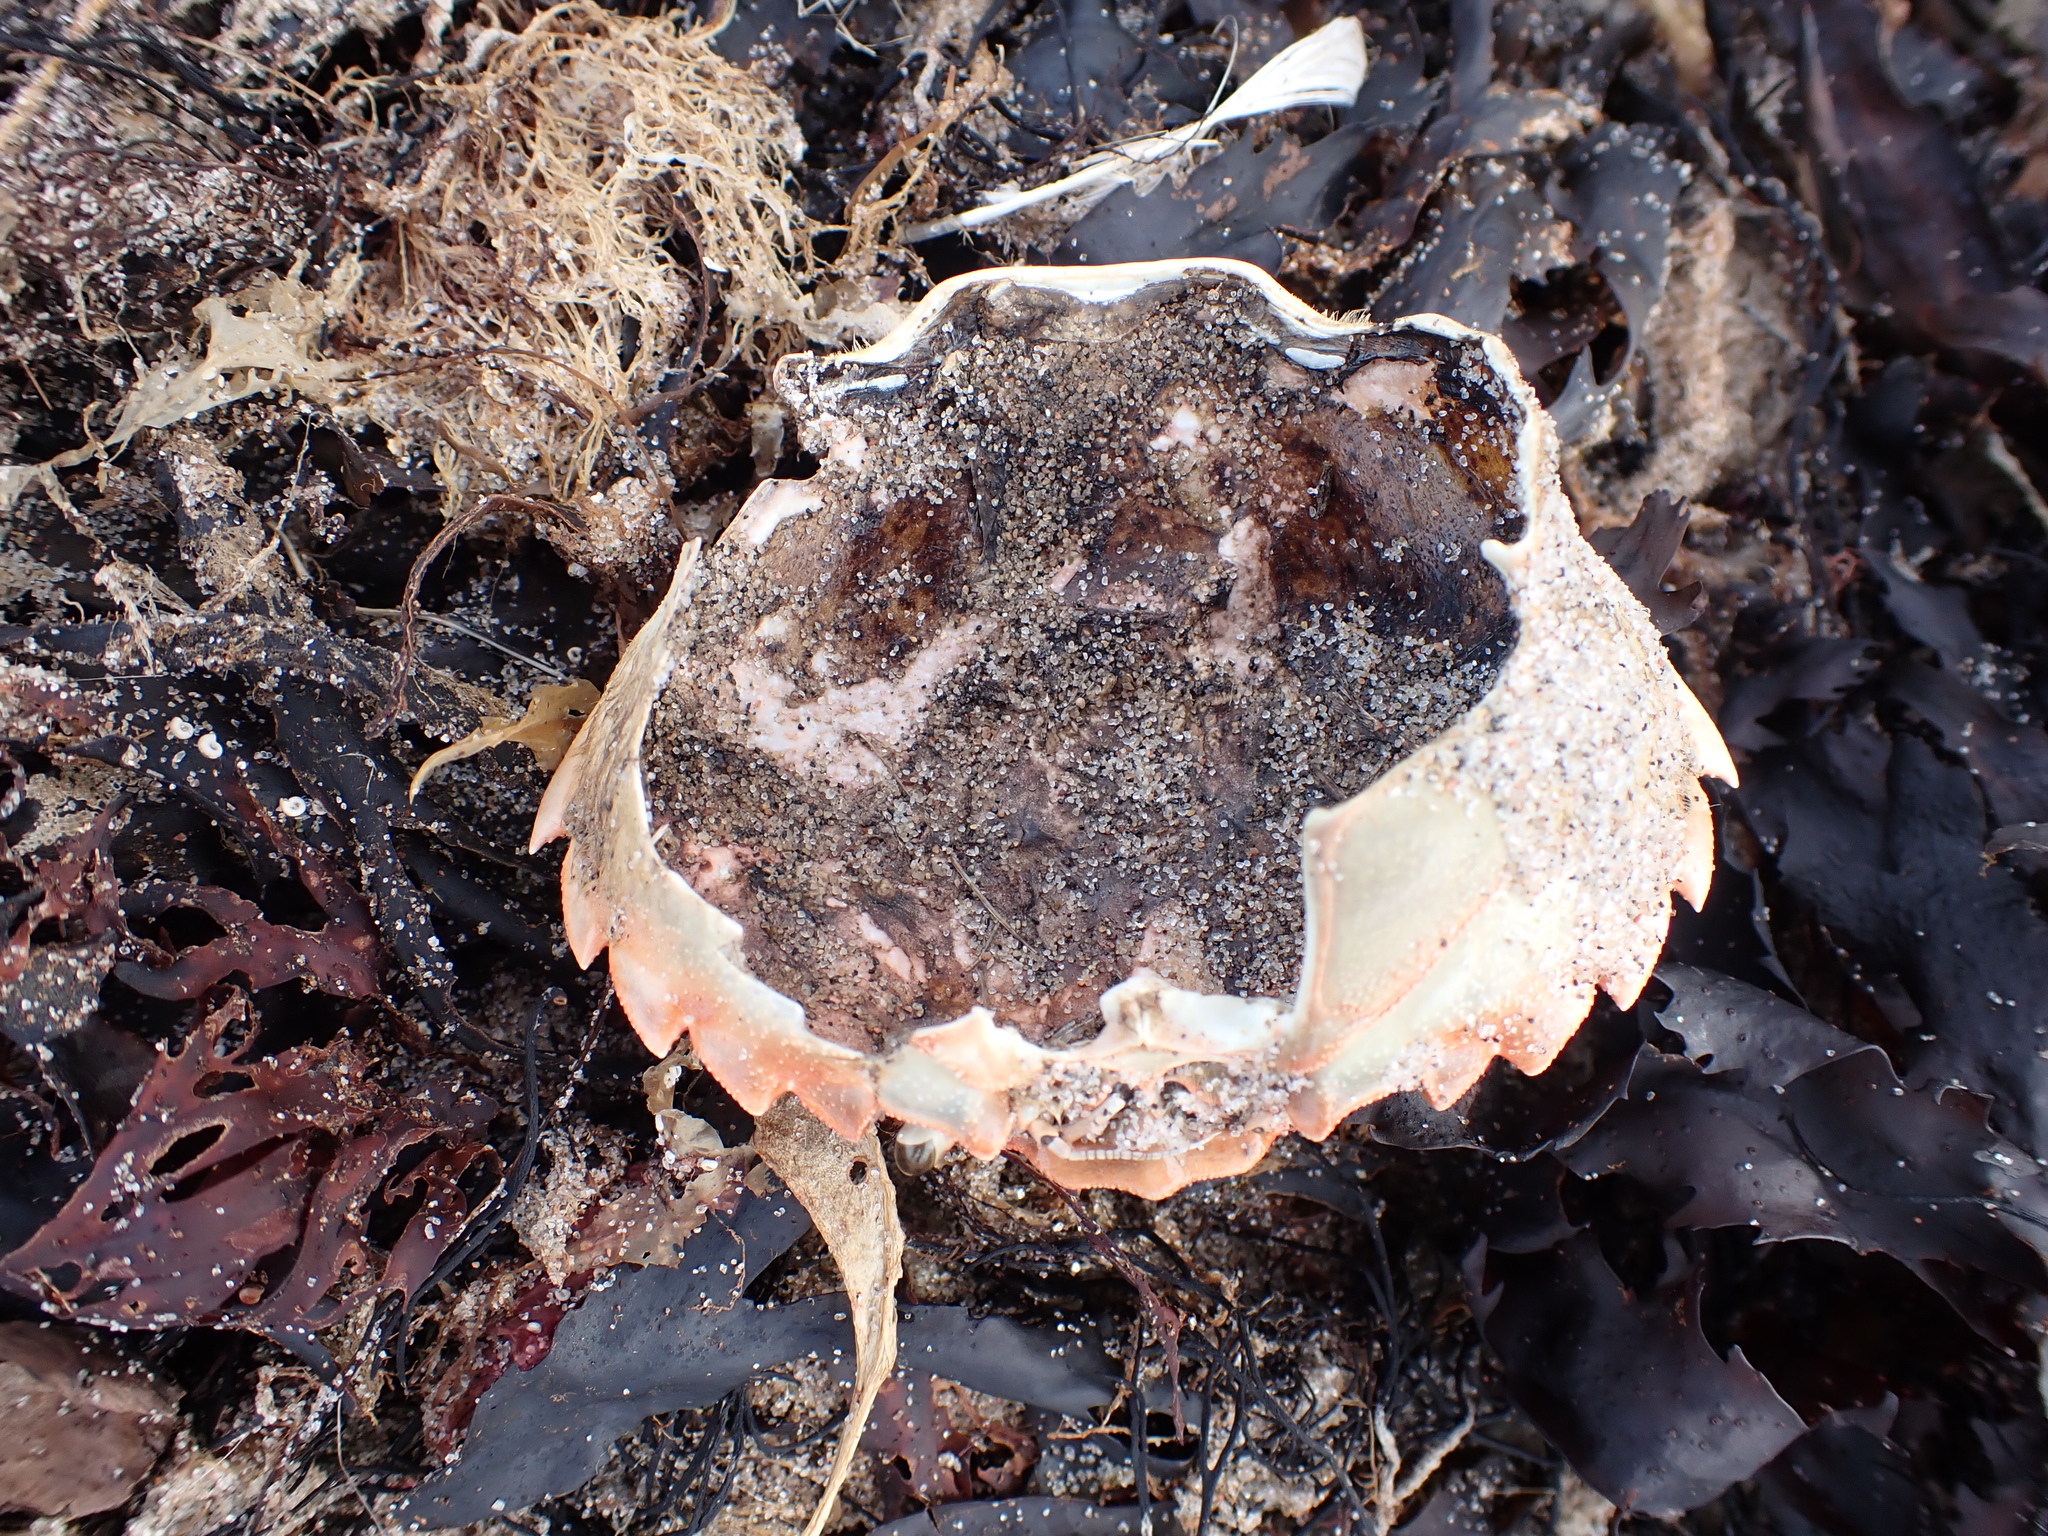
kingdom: Animalia
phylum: Arthropoda
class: Malacostraca
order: Decapoda
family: Carcinidae
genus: Carcinus
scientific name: Carcinus maenas
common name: European green crab
